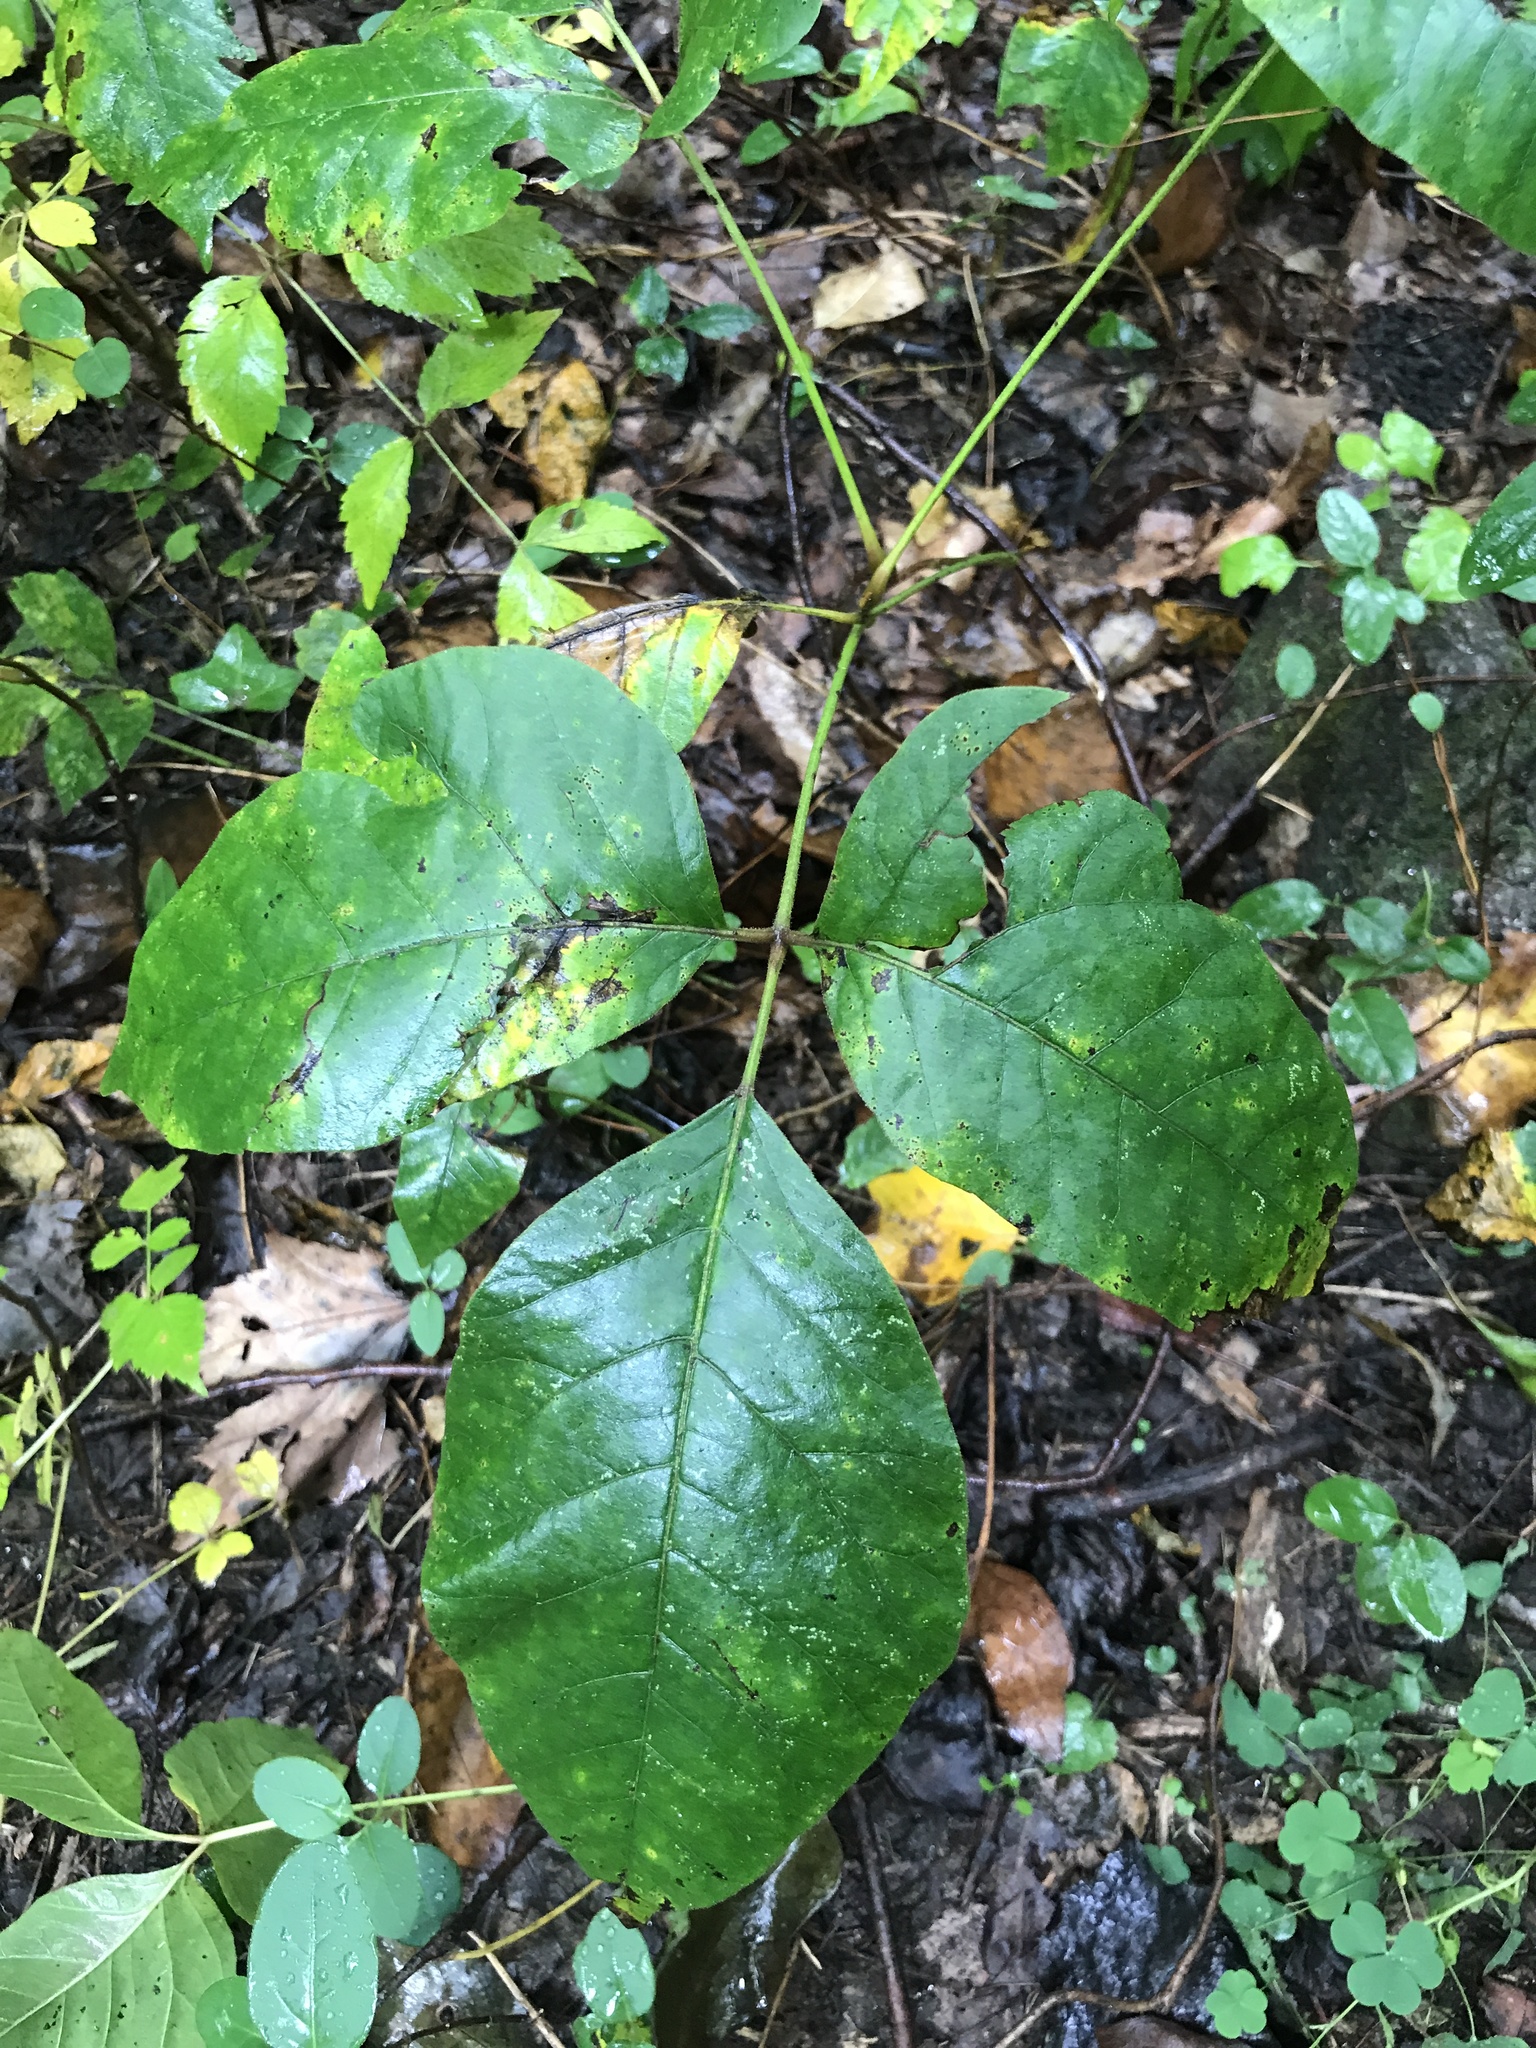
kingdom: Plantae
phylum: Tracheophyta
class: Magnoliopsida
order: Sapindales
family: Anacardiaceae
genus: Toxicodendron
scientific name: Toxicodendron radicans
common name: Poison ivy
